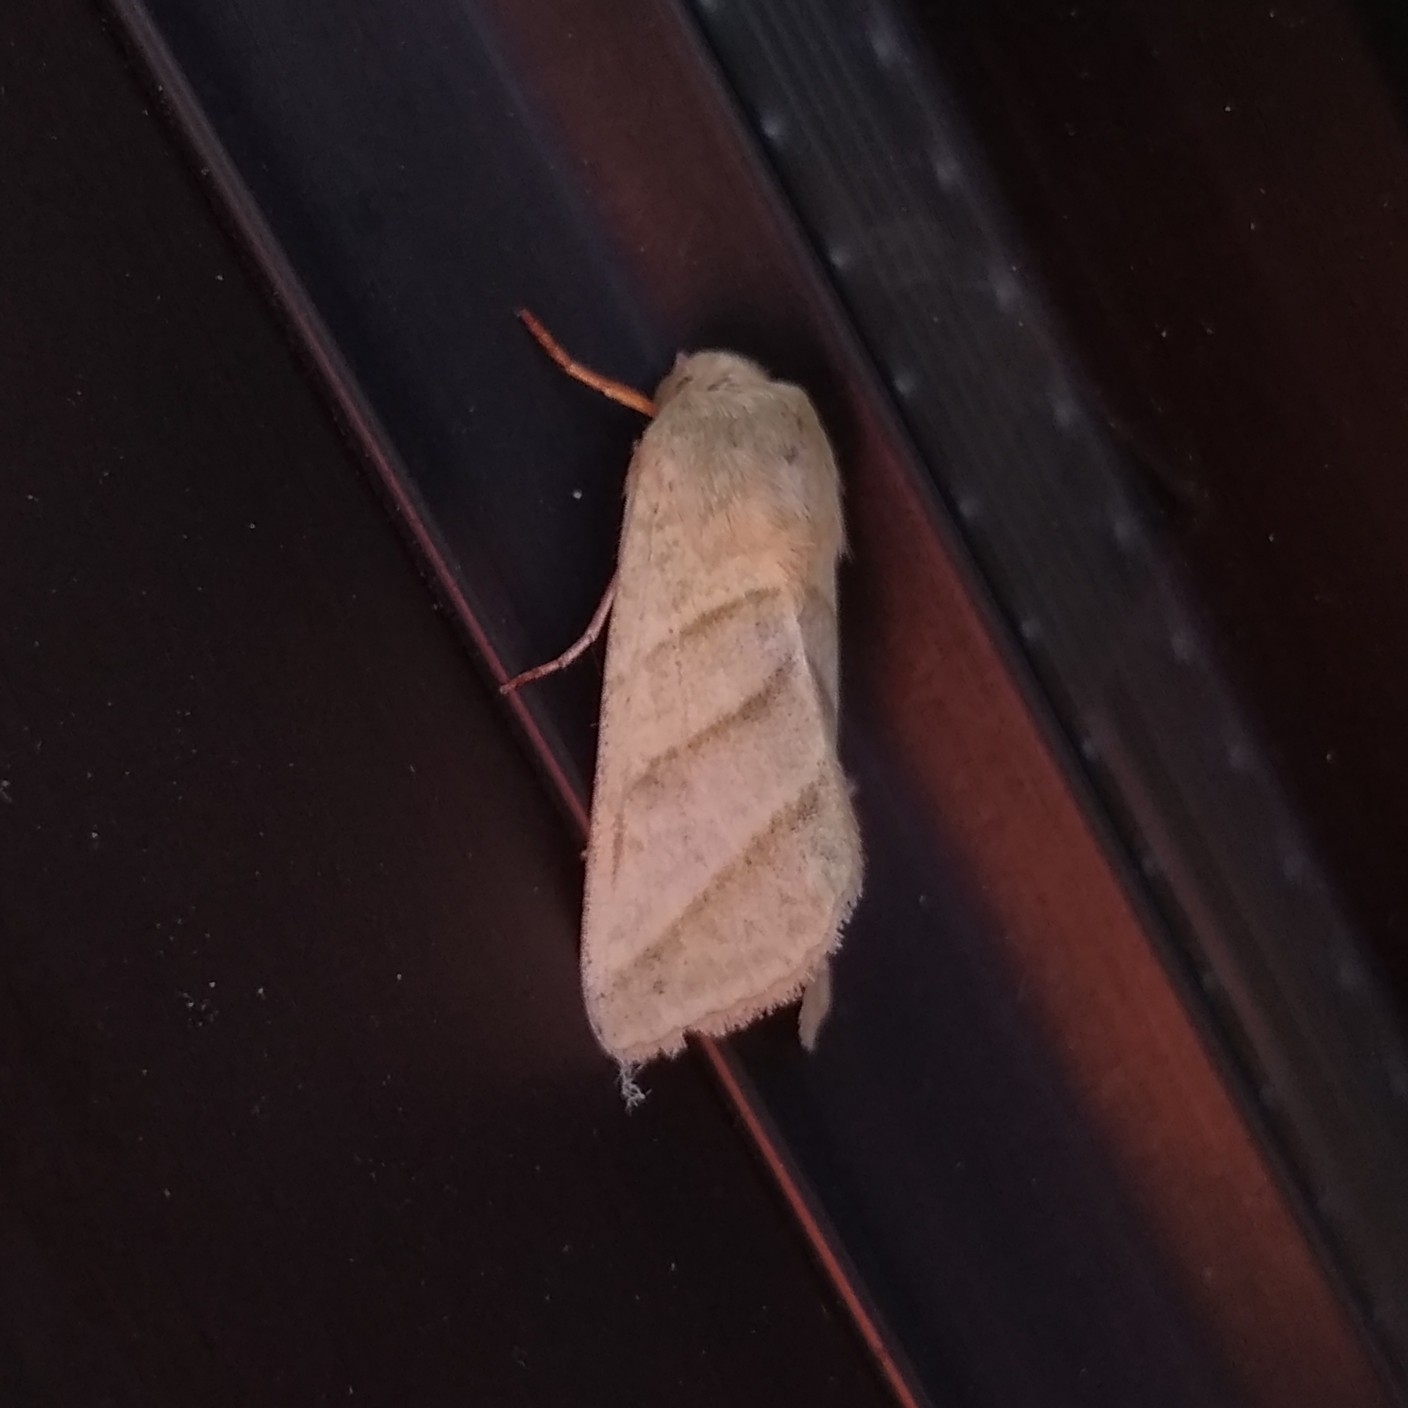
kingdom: Animalia
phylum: Arthropoda
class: Insecta
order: Lepidoptera
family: Noctuidae
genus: Chloridea
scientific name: Chloridea virescens
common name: Tobacco budworm
